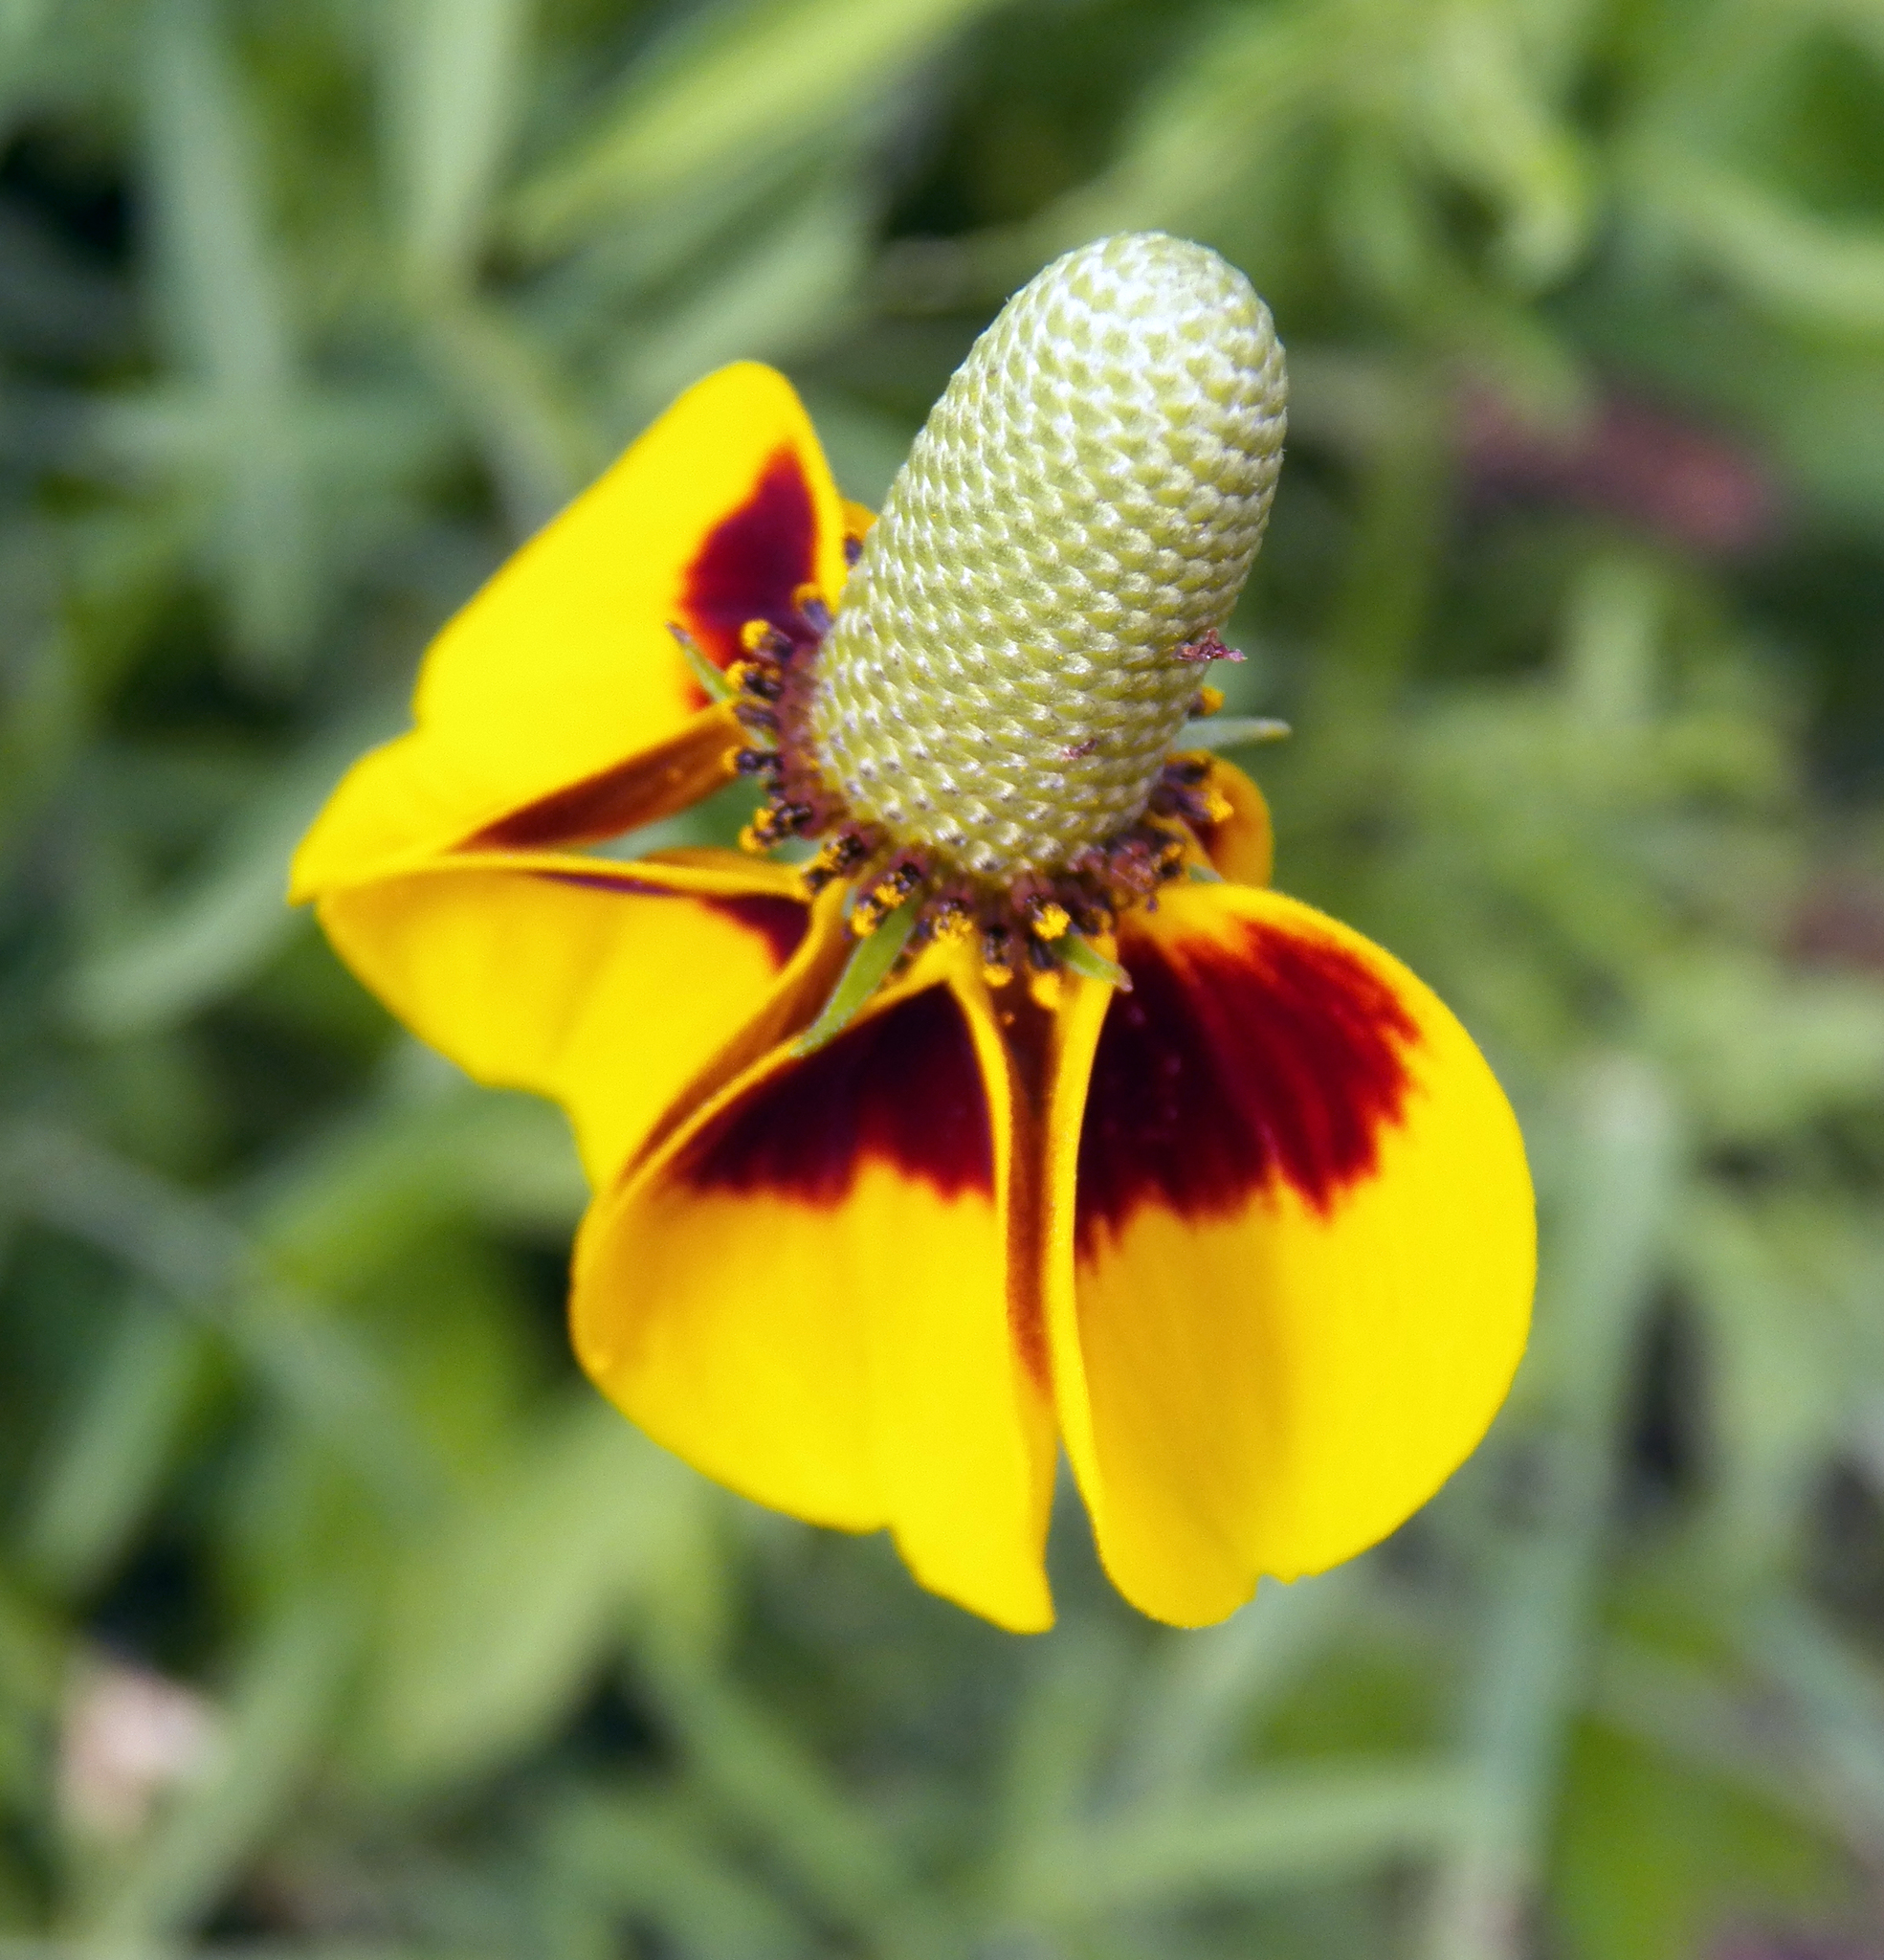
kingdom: Plantae
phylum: Tracheophyta
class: Magnoliopsida
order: Asterales
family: Asteraceae
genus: Ratibida
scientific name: Ratibida columnifera
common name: Prairie coneflower
